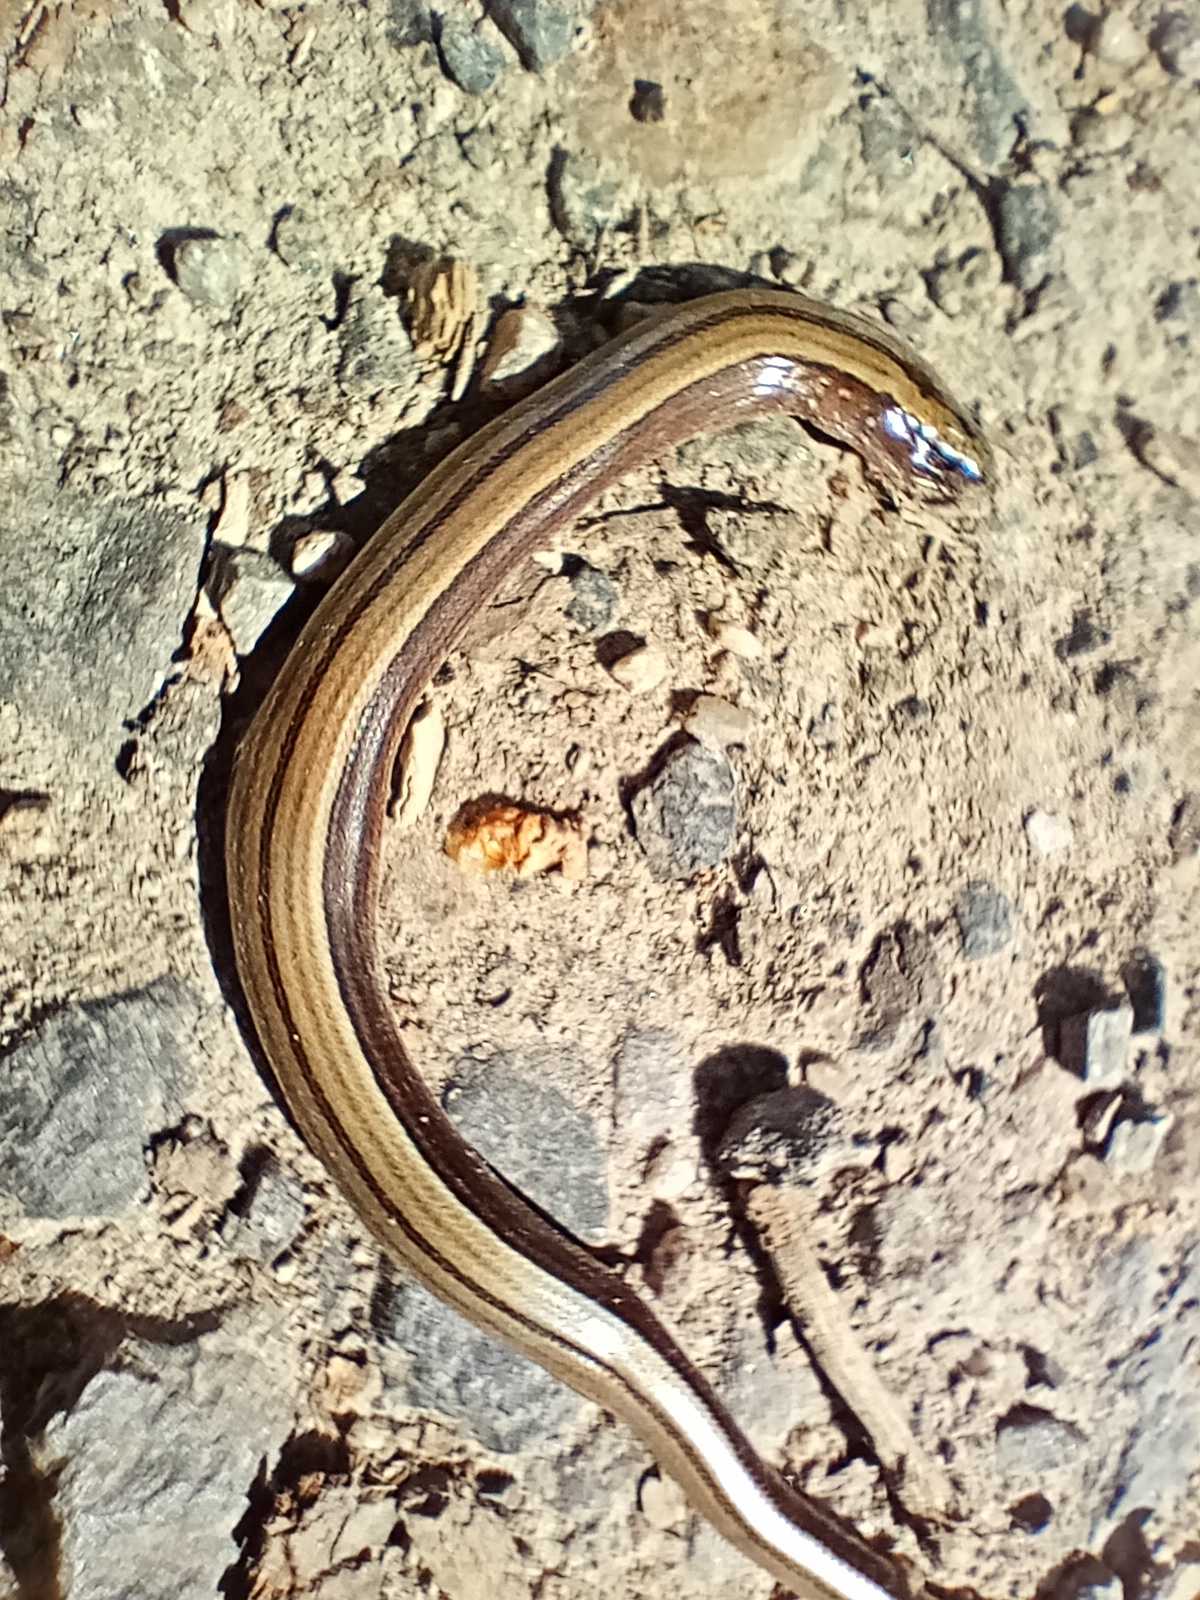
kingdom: Animalia
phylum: Chordata
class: Squamata
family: Anguidae
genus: Anguis
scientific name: Anguis fragilis
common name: Slow worm
